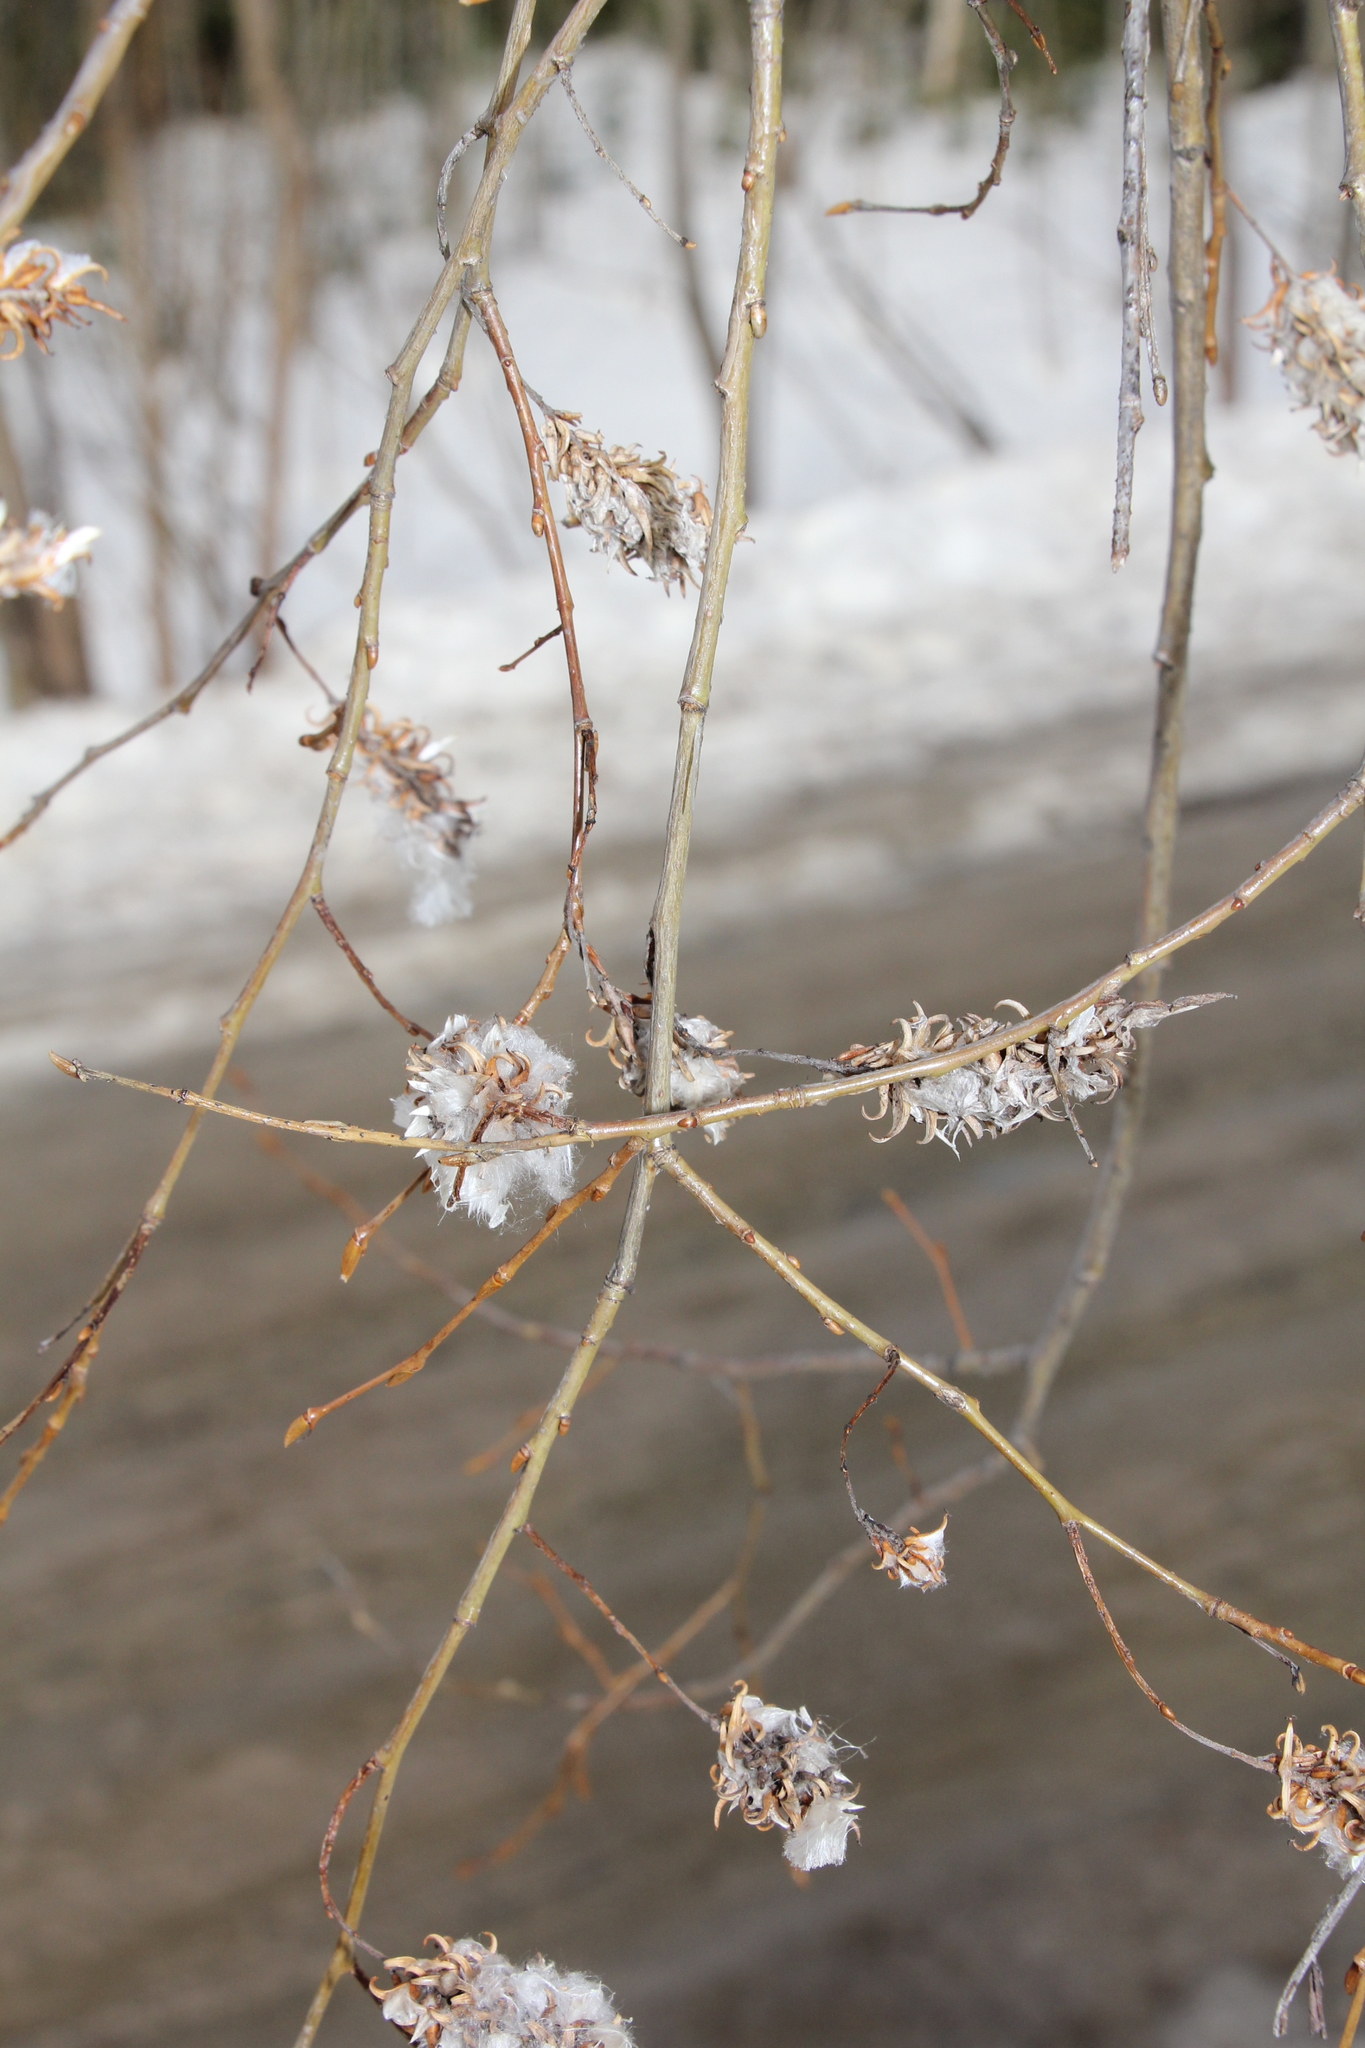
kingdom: Plantae
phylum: Tracheophyta
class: Magnoliopsida
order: Malpighiales
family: Salicaceae
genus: Salix
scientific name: Salix pentandra
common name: Bay willow
